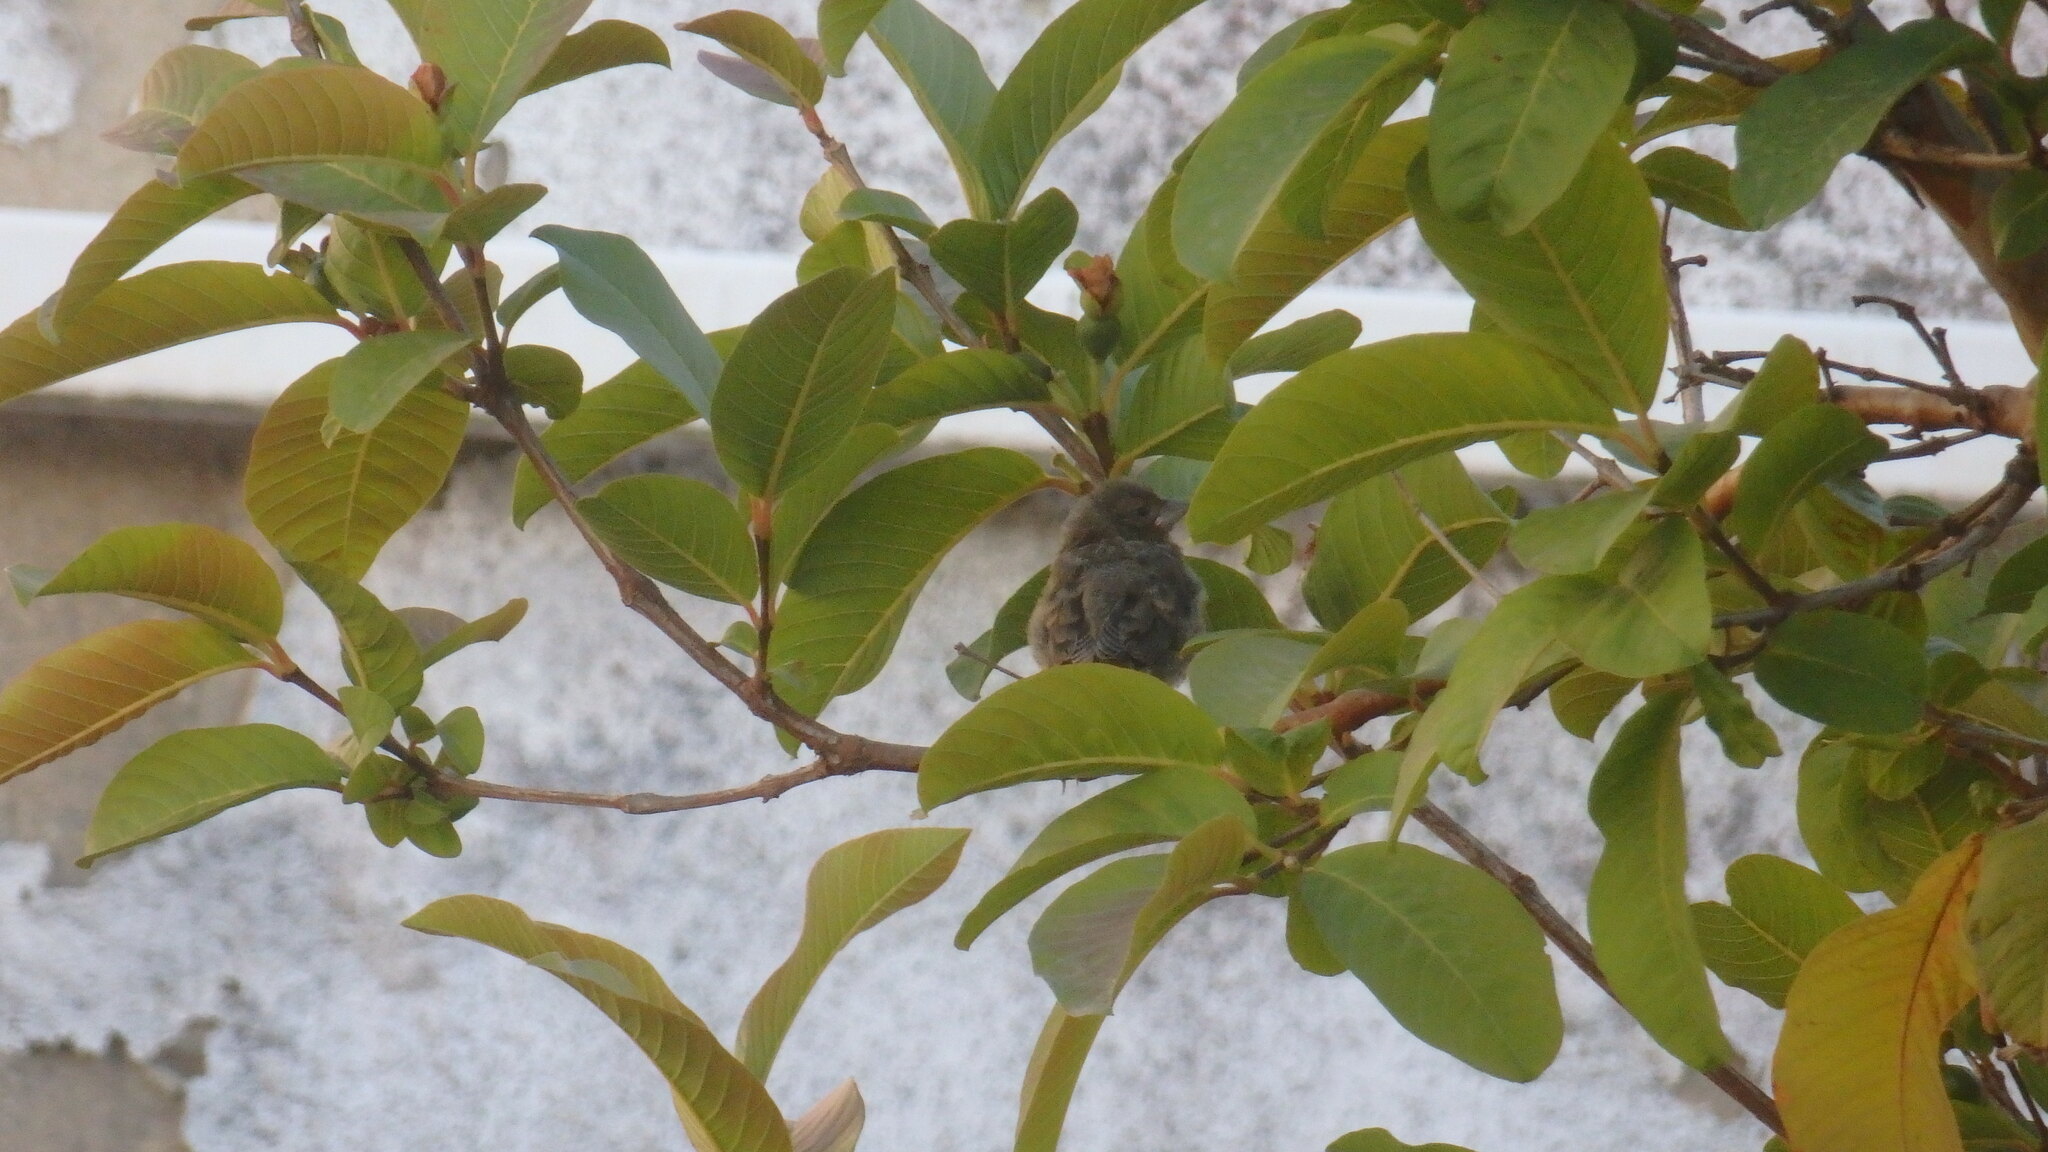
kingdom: Plantae
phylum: Tracheophyta
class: Liliopsida
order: Poales
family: Poaceae
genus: Chloris
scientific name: Chloris chloris
